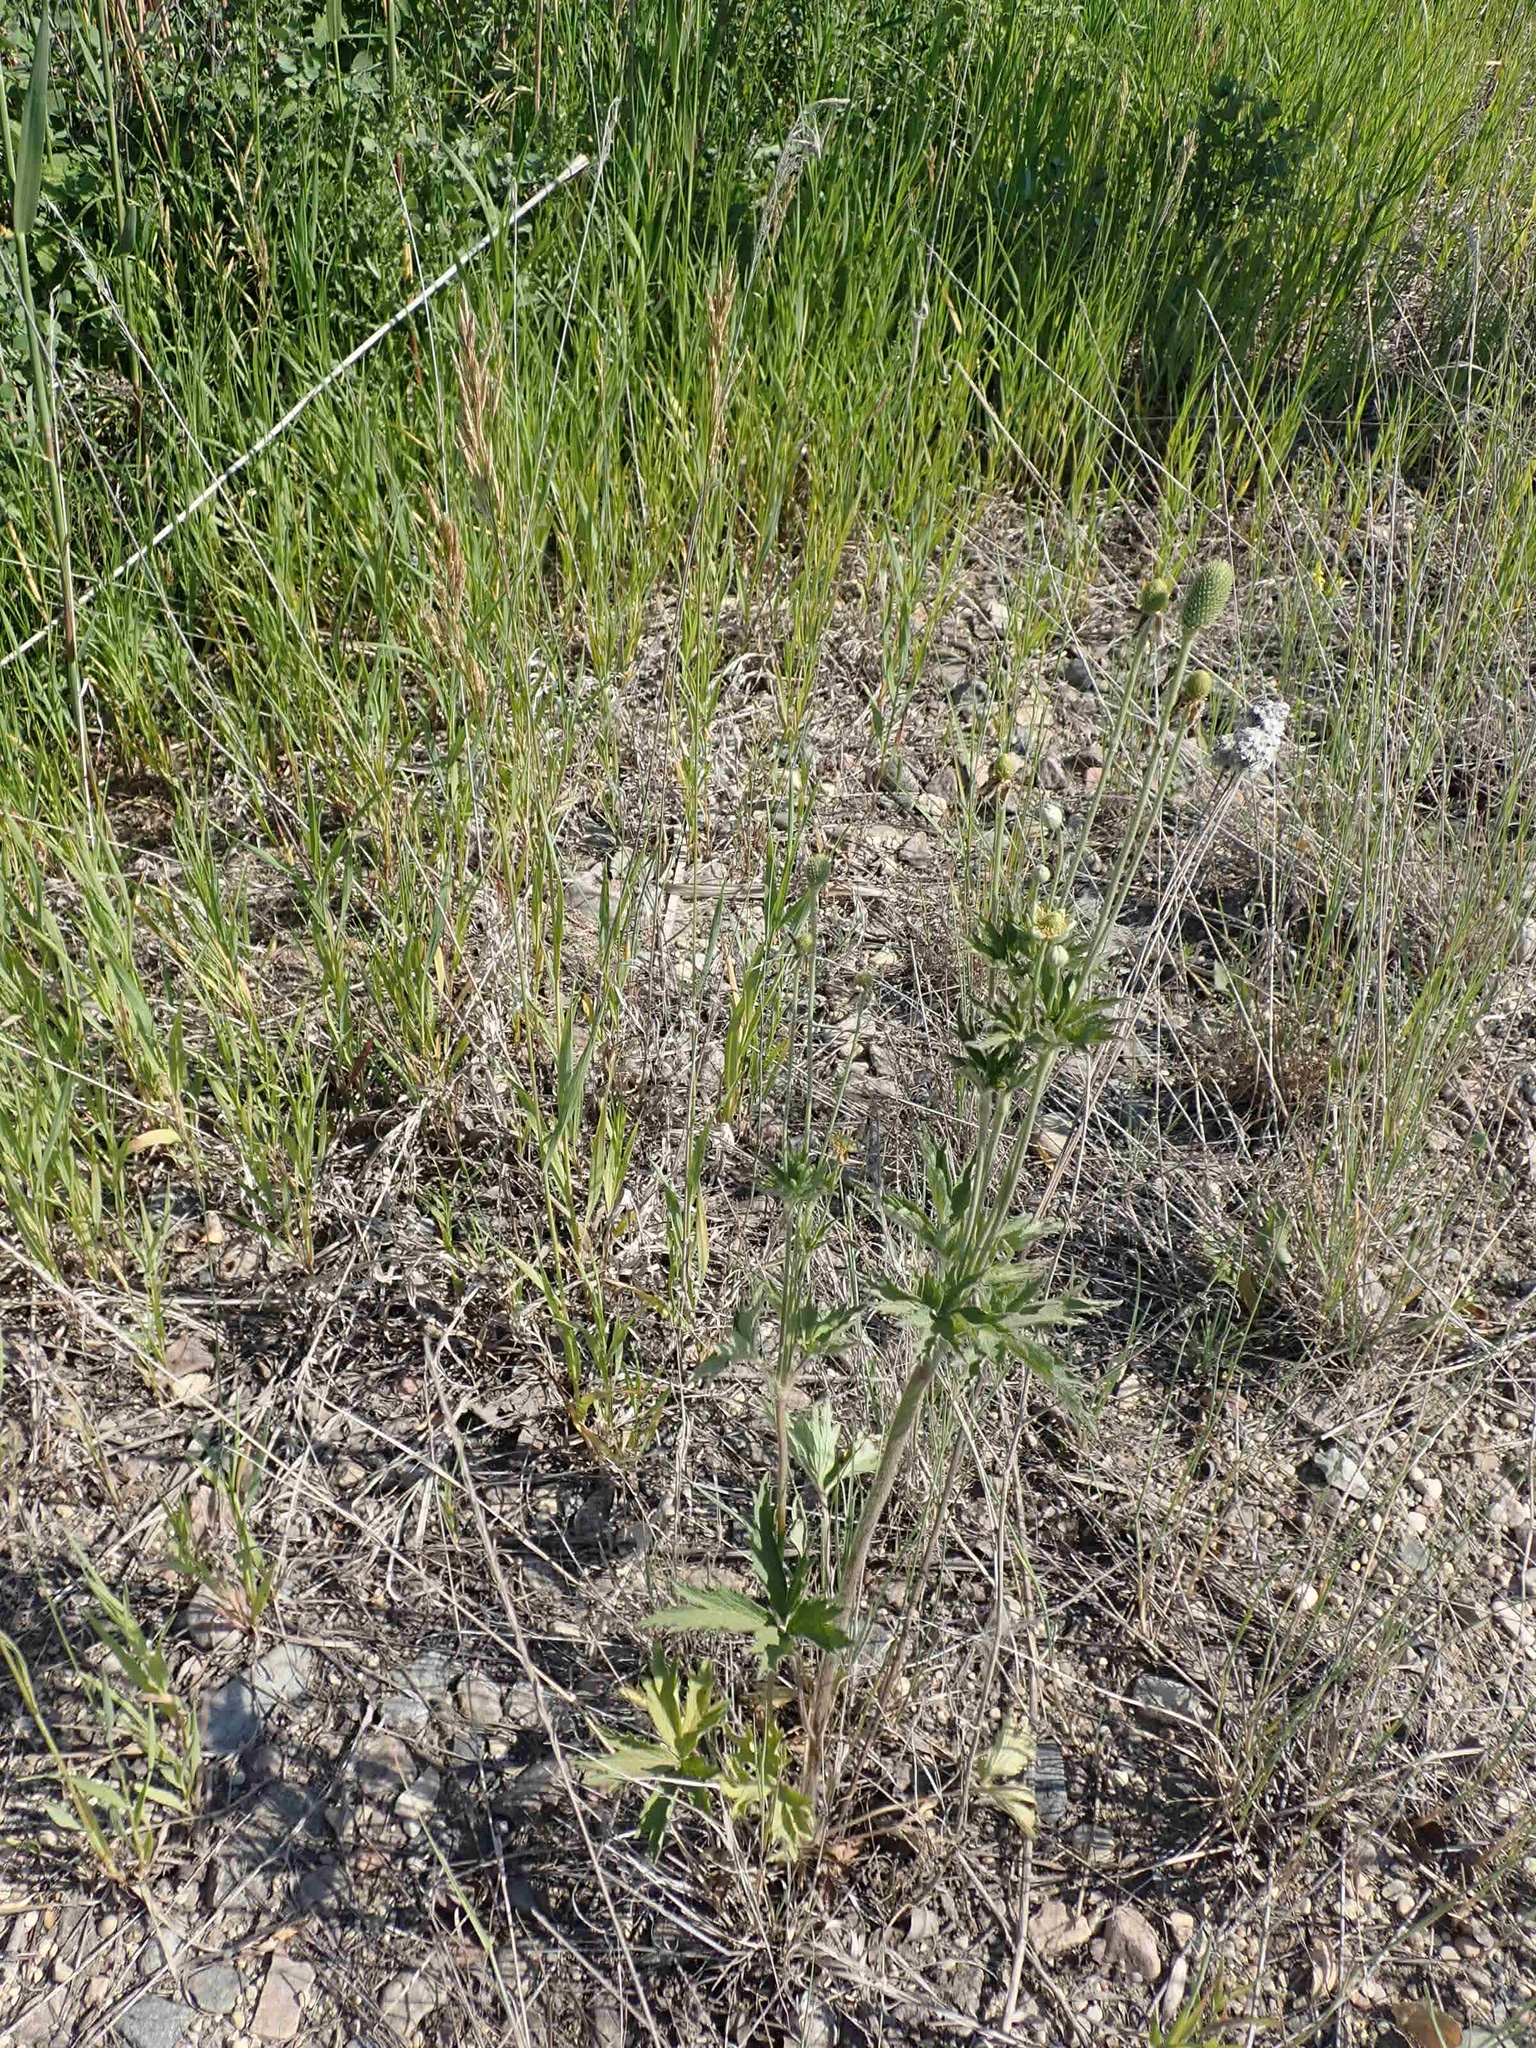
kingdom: Plantae
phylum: Tracheophyta
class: Magnoliopsida
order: Ranunculales
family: Ranunculaceae
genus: Anemone
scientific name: Anemone cylindrica
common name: Candle anemone
